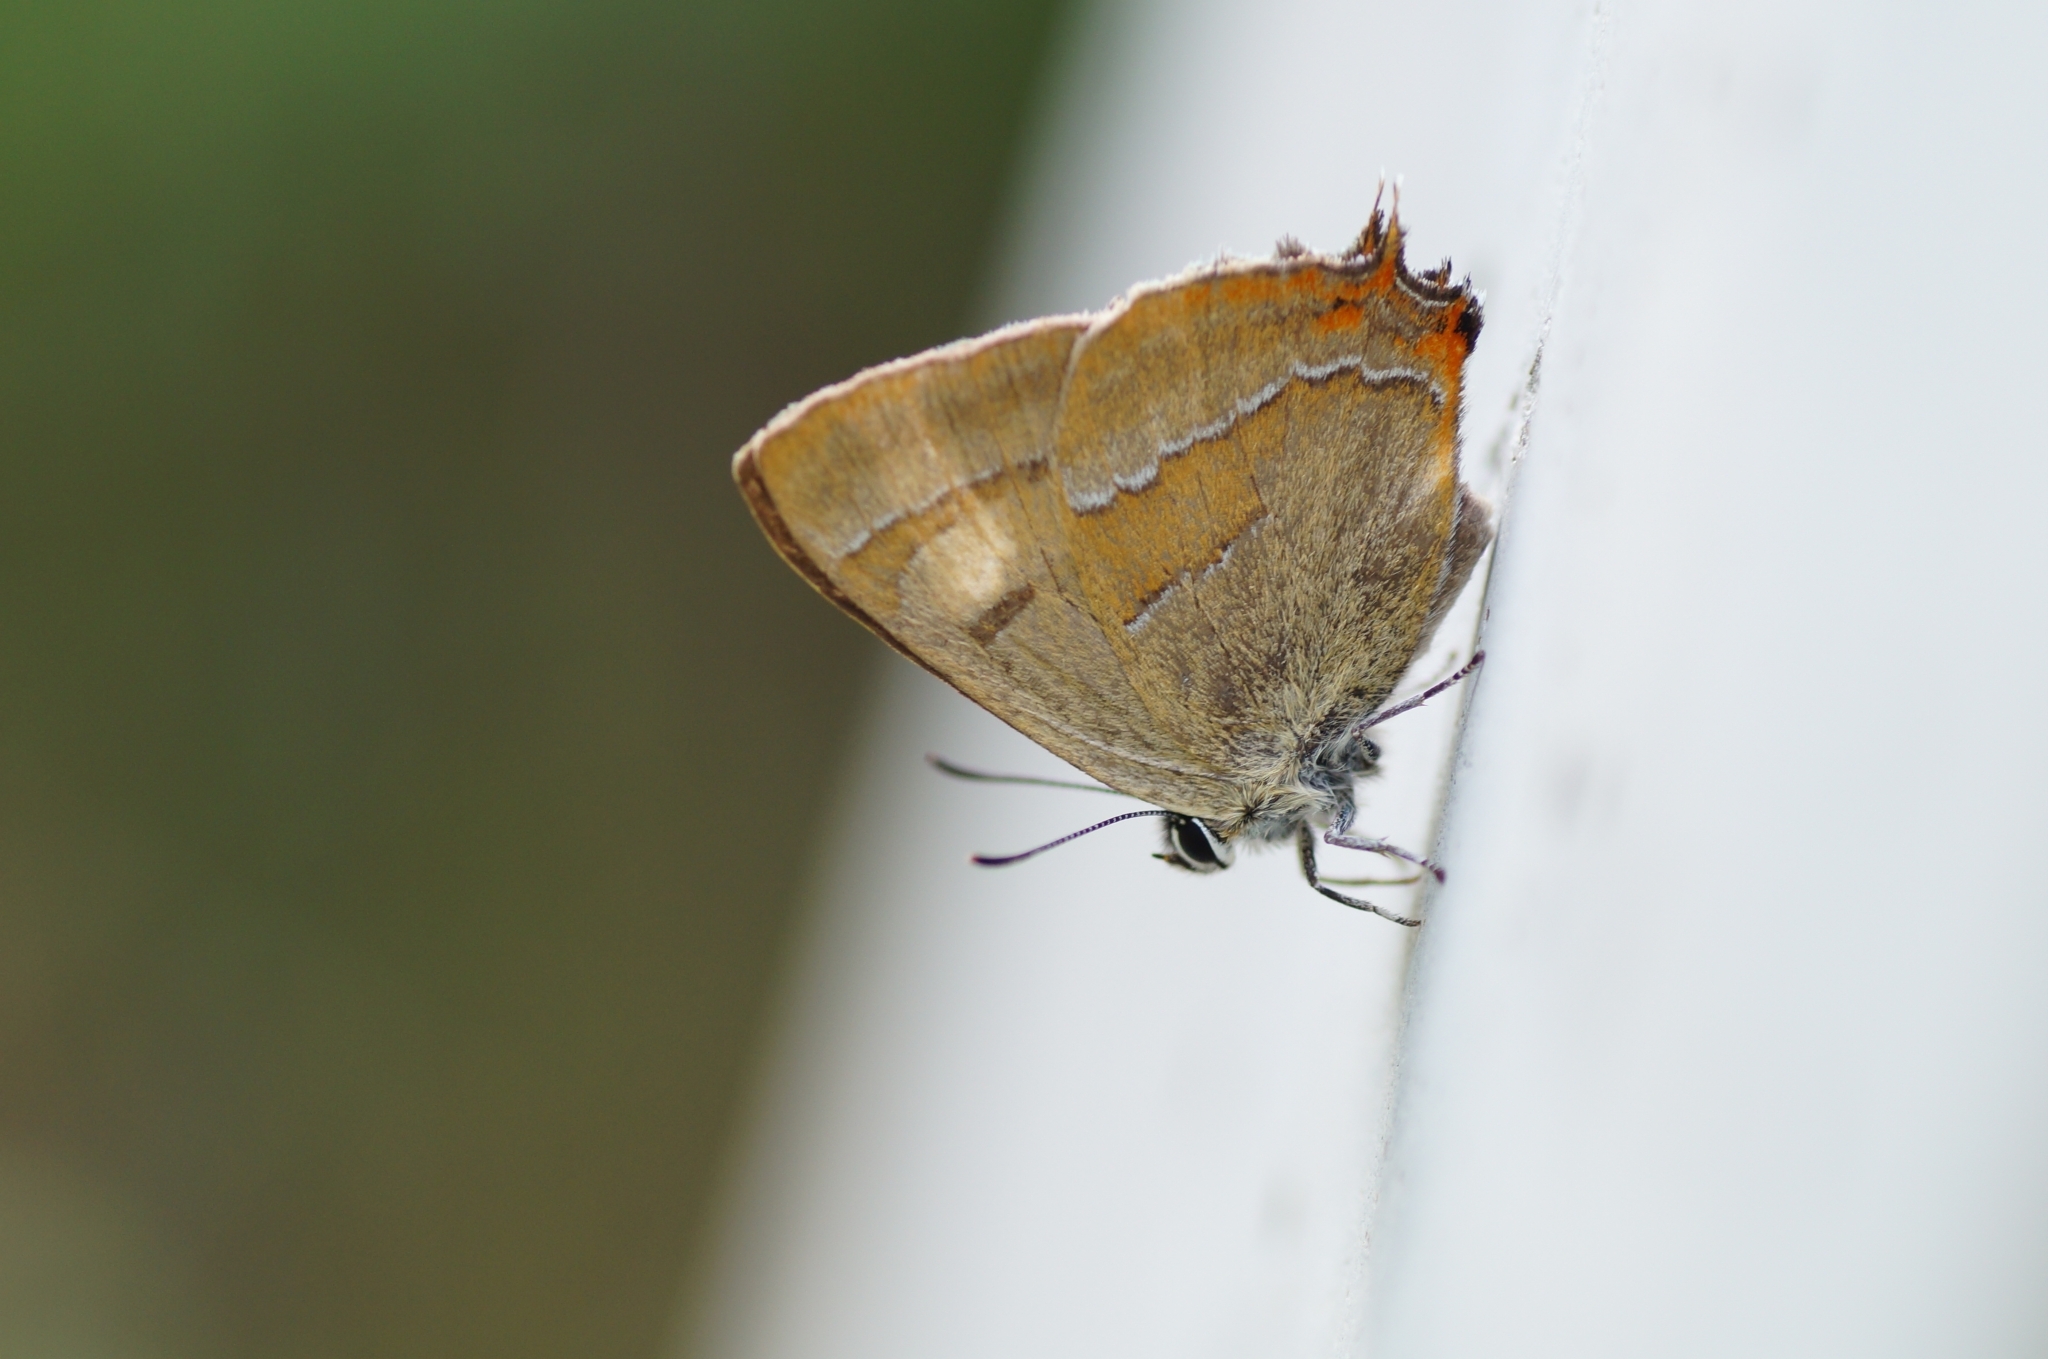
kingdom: Animalia
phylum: Arthropoda
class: Insecta
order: Lepidoptera
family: Lycaenidae
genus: Thecla
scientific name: Thecla betulae
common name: Brown hairstreak
